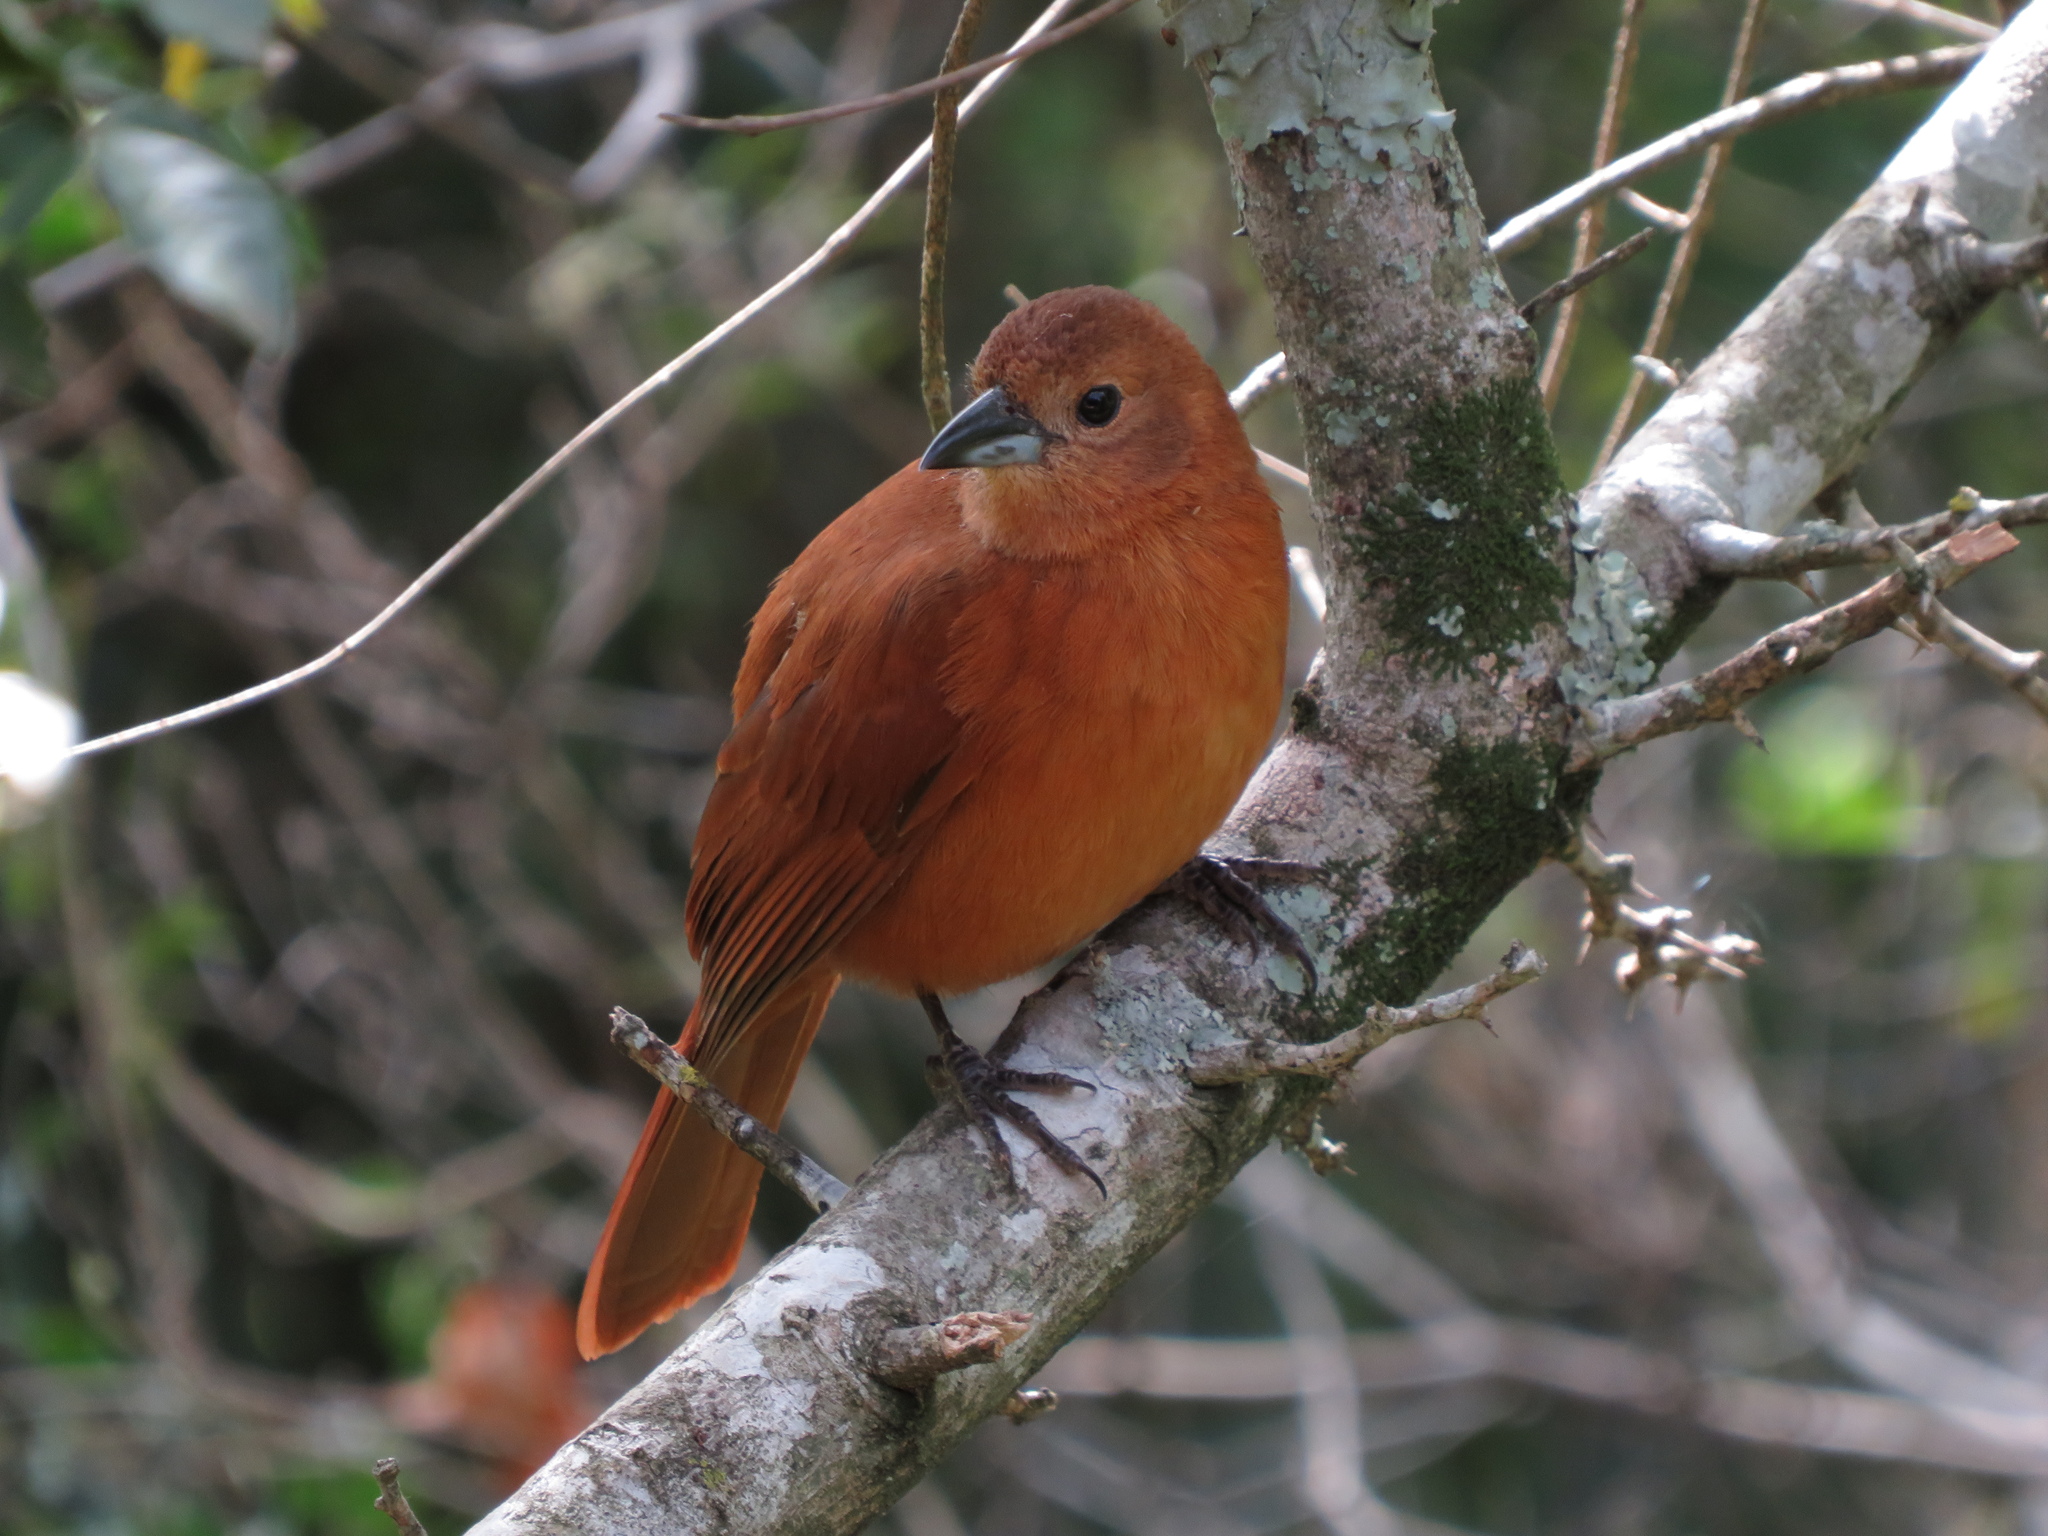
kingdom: Animalia
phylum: Chordata
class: Aves
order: Passeriformes
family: Thraupidae
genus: Tachyphonus
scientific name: Tachyphonus rufus
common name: White-lined tanager
